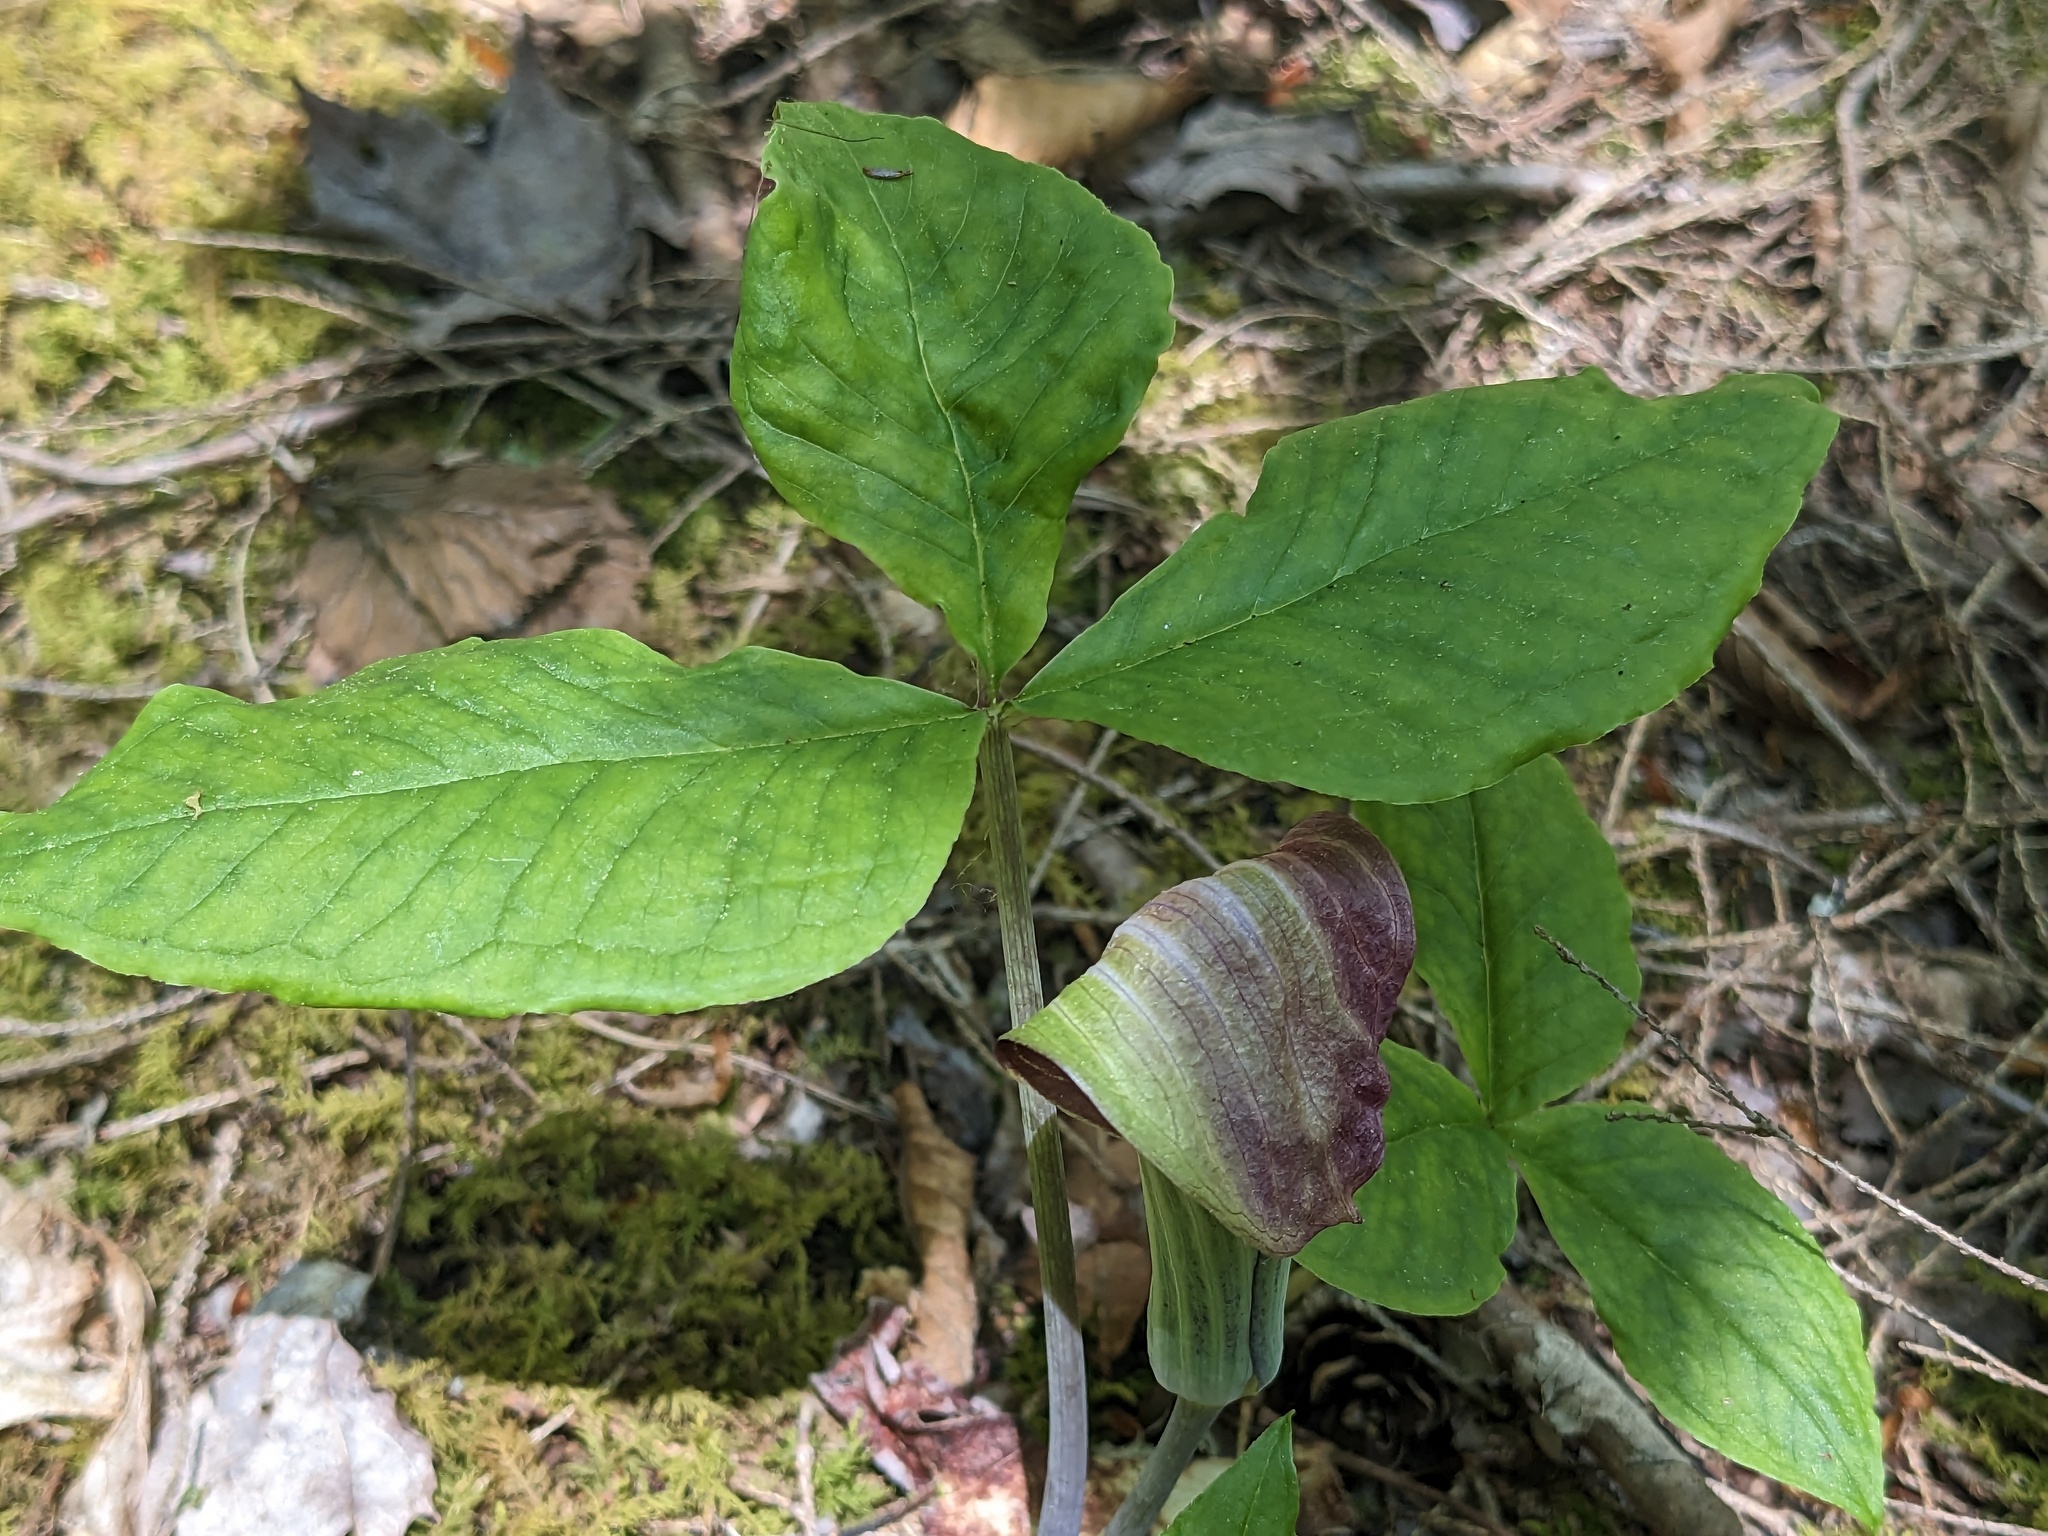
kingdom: Plantae
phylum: Tracheophyta
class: Liliopsida
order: Alismatales
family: Araceae
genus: Arisaema
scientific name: Arisaema triphyllum
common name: Jack-in-the-pulpit
